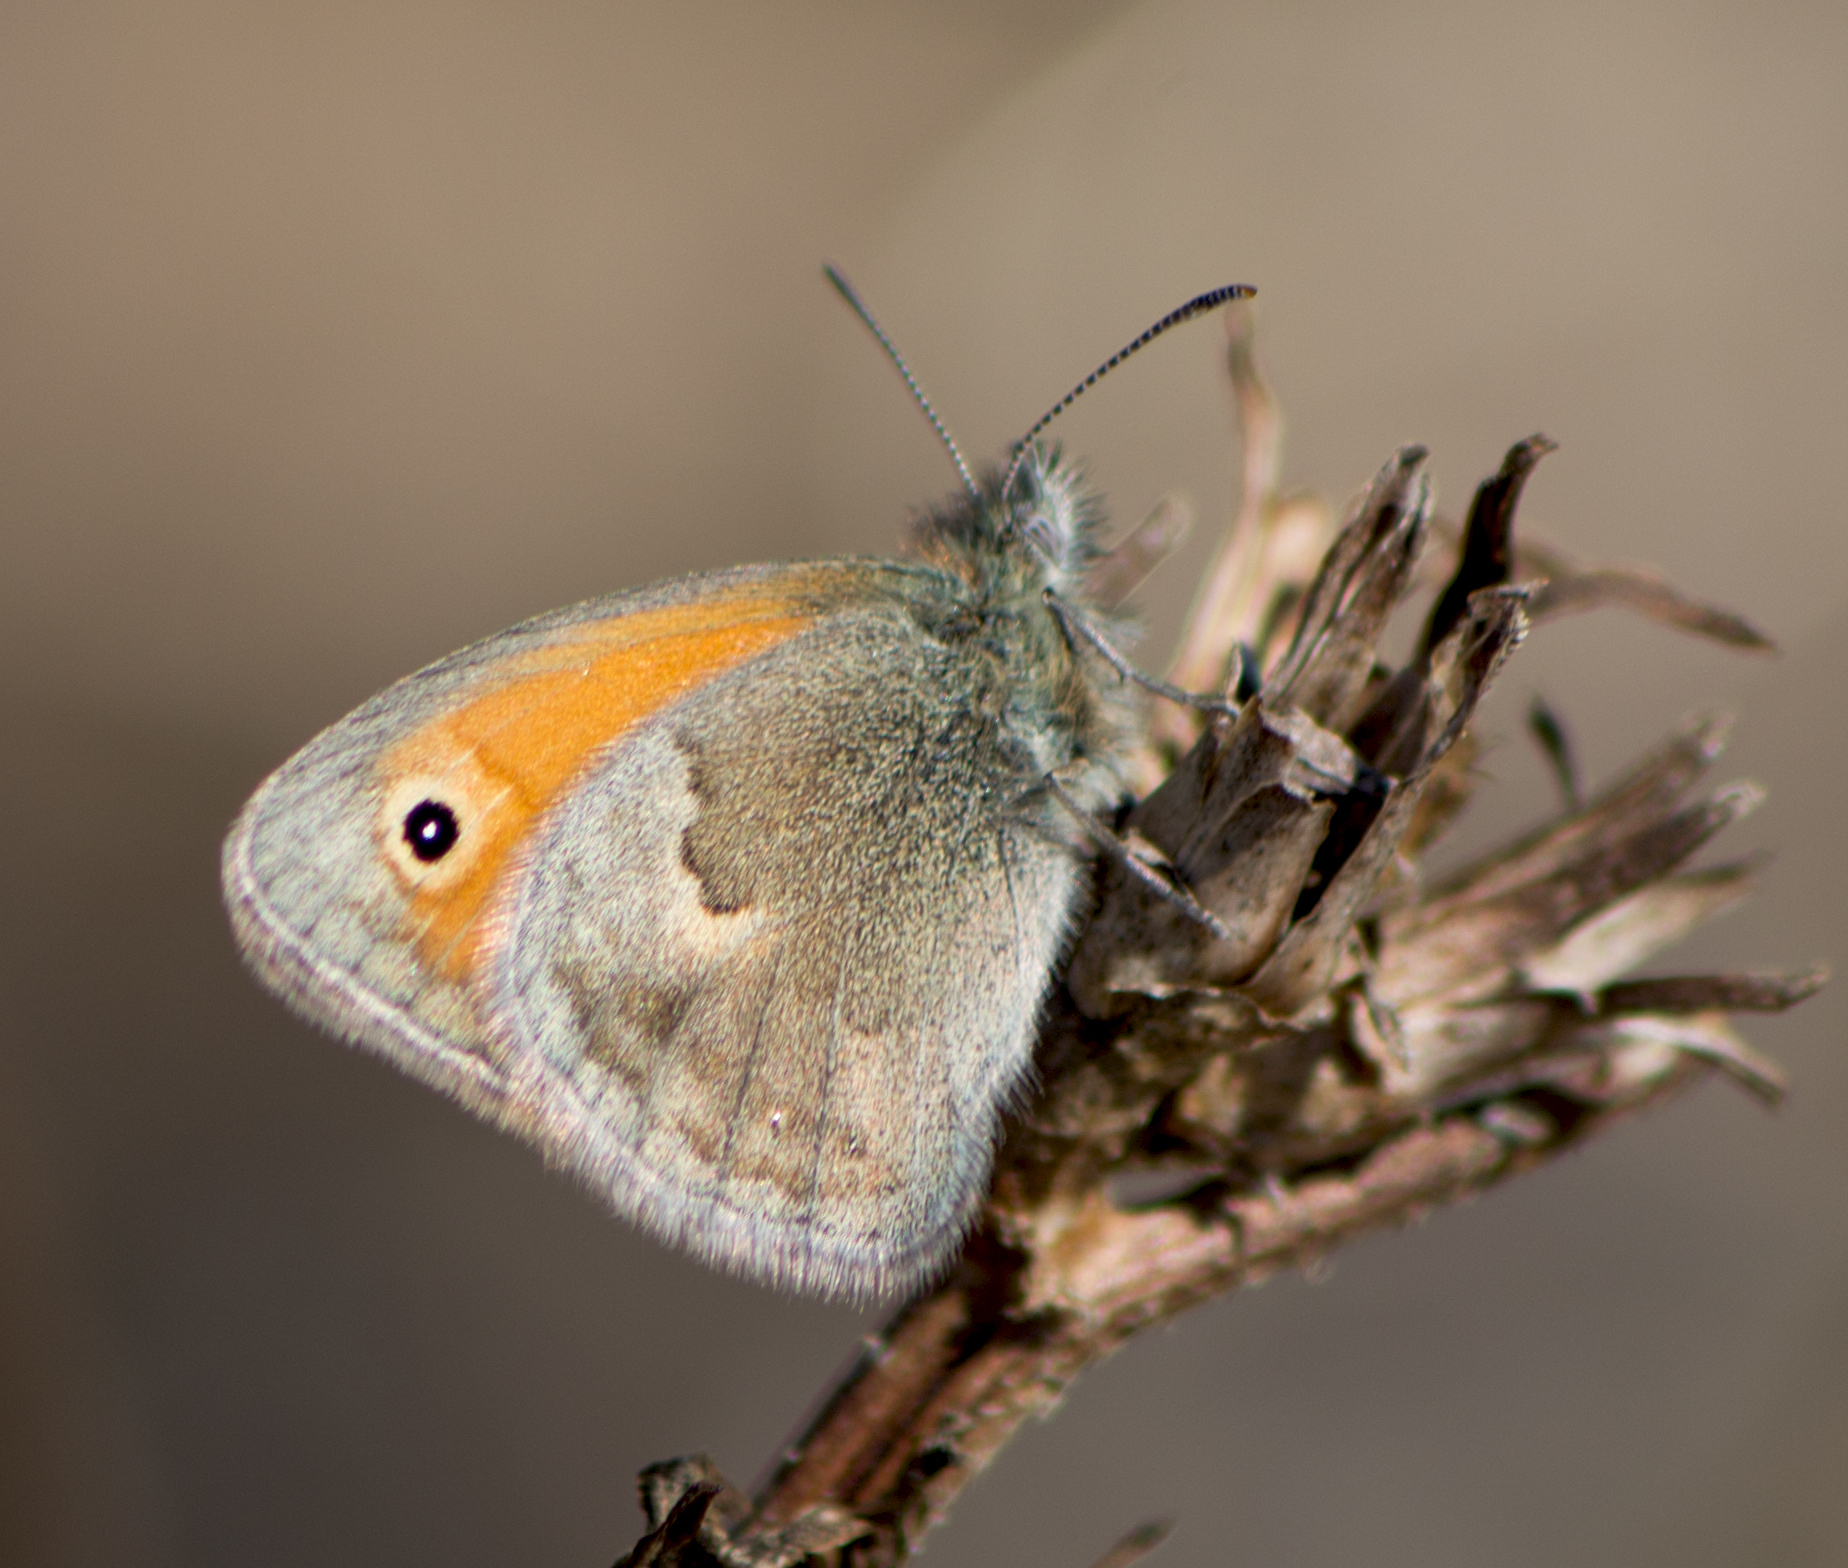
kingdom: Animalia
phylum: Arthropoda
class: Insecta
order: Lepidoptera
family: Nymphalidae
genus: Coenonympha
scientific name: Coenonympha pamphilus
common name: Small heath
